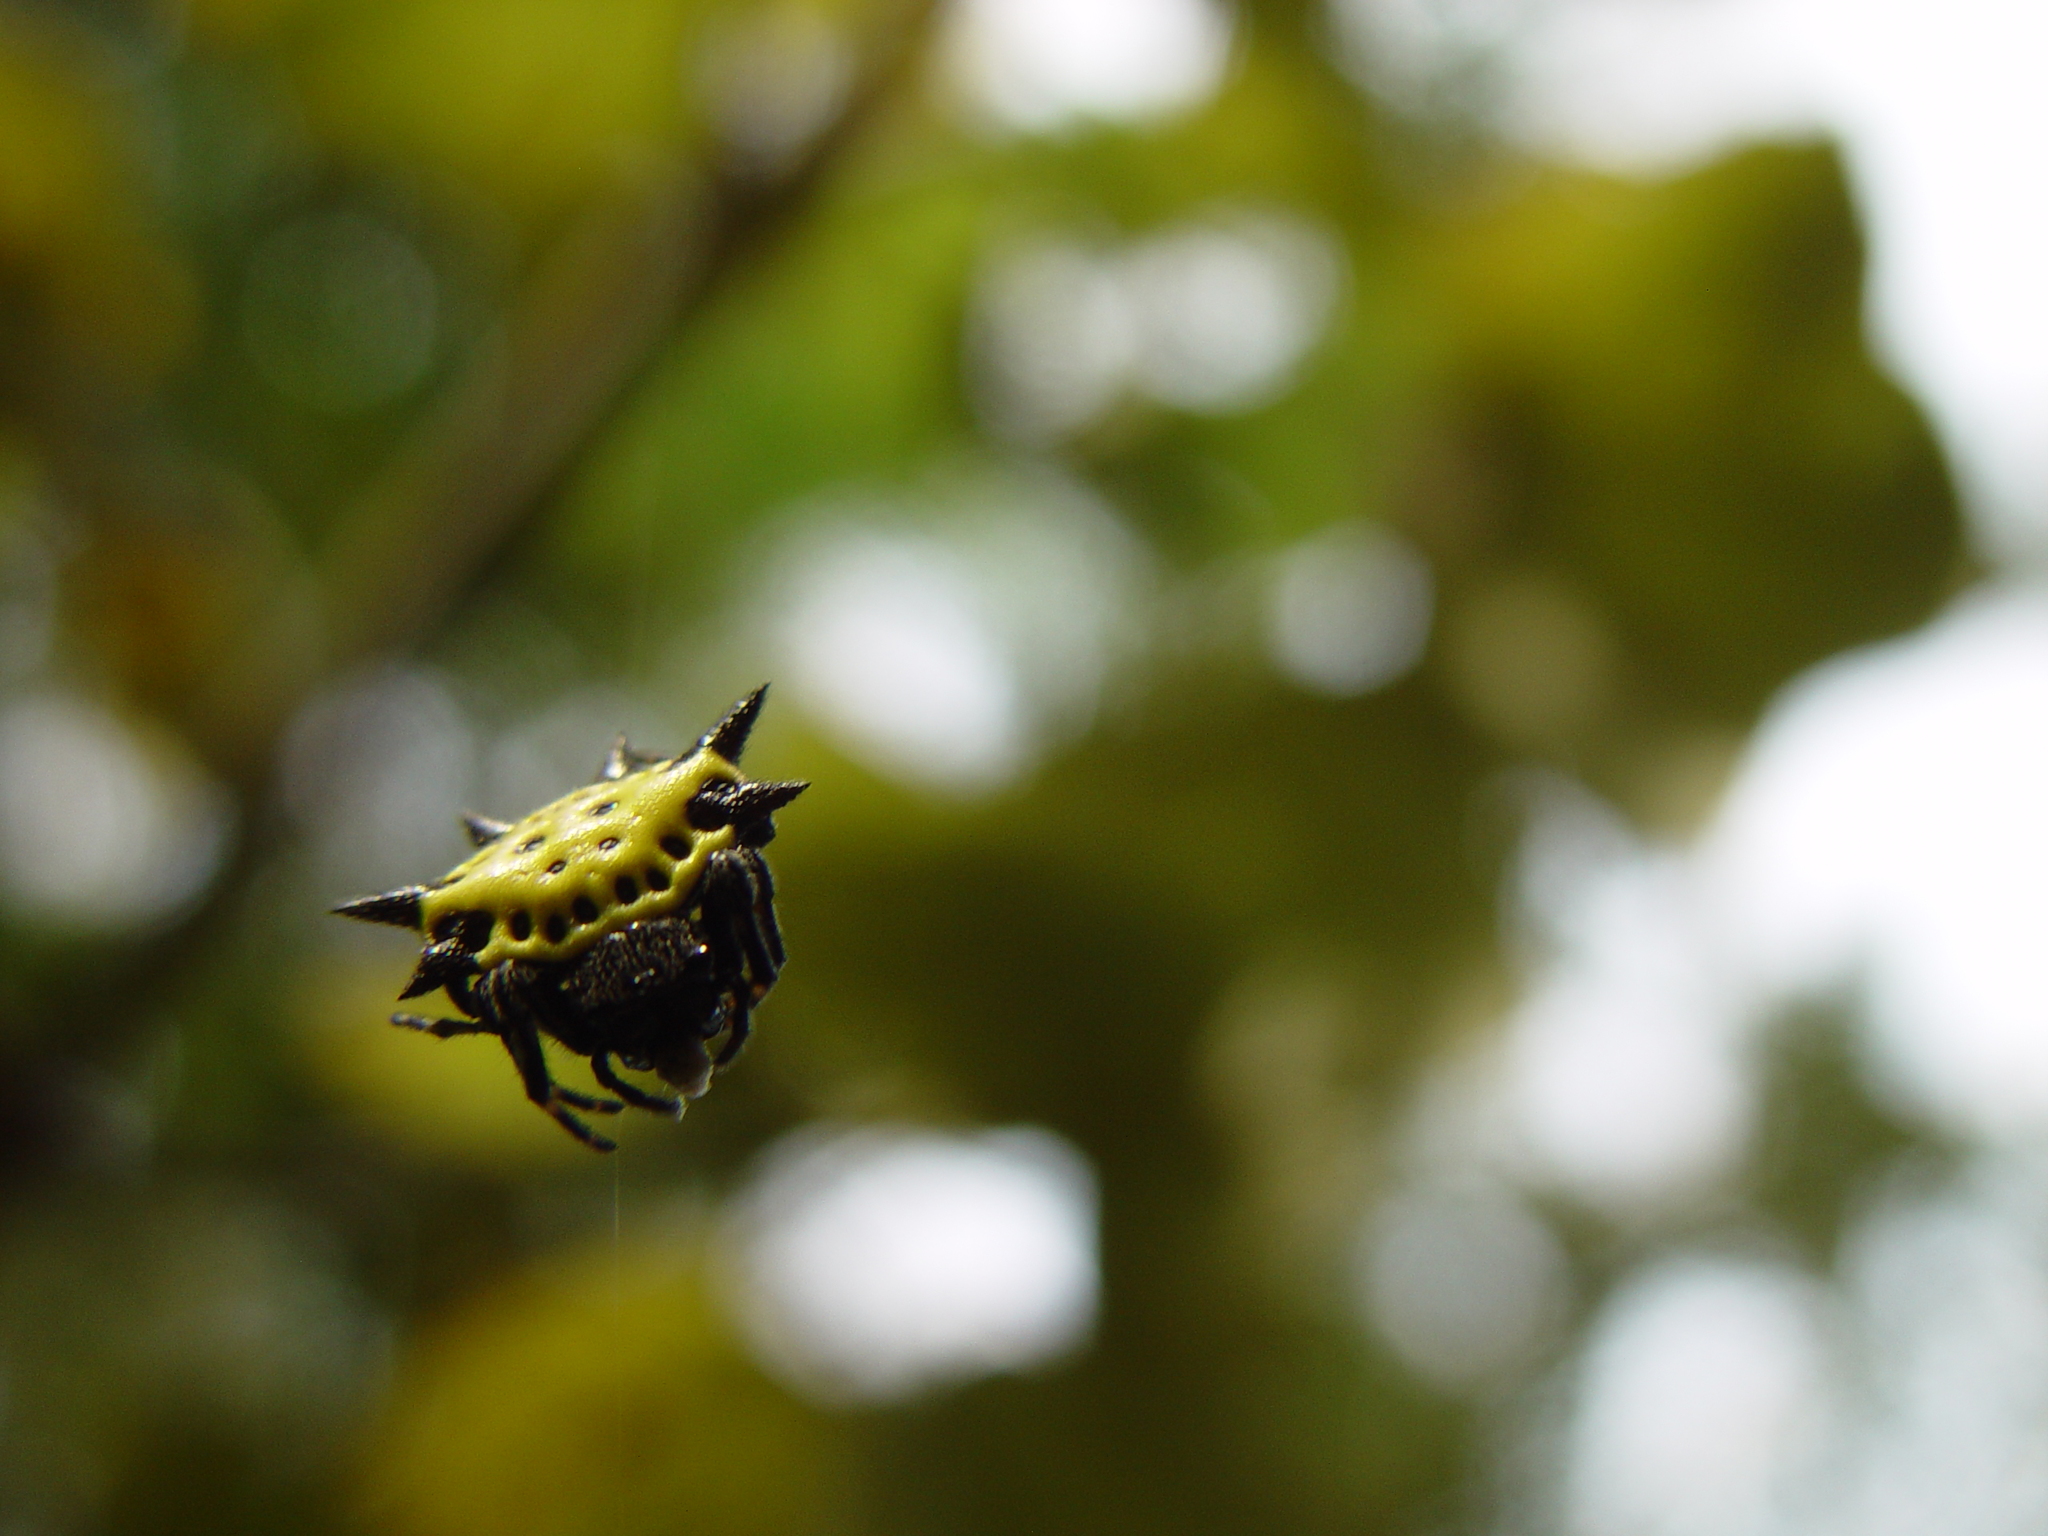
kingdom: Animalia
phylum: Arthropoda
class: Arachnida
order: Araneae
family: Araneidae
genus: Gasteracantha
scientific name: Gasteracantha cancriformis
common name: Orb weavers
